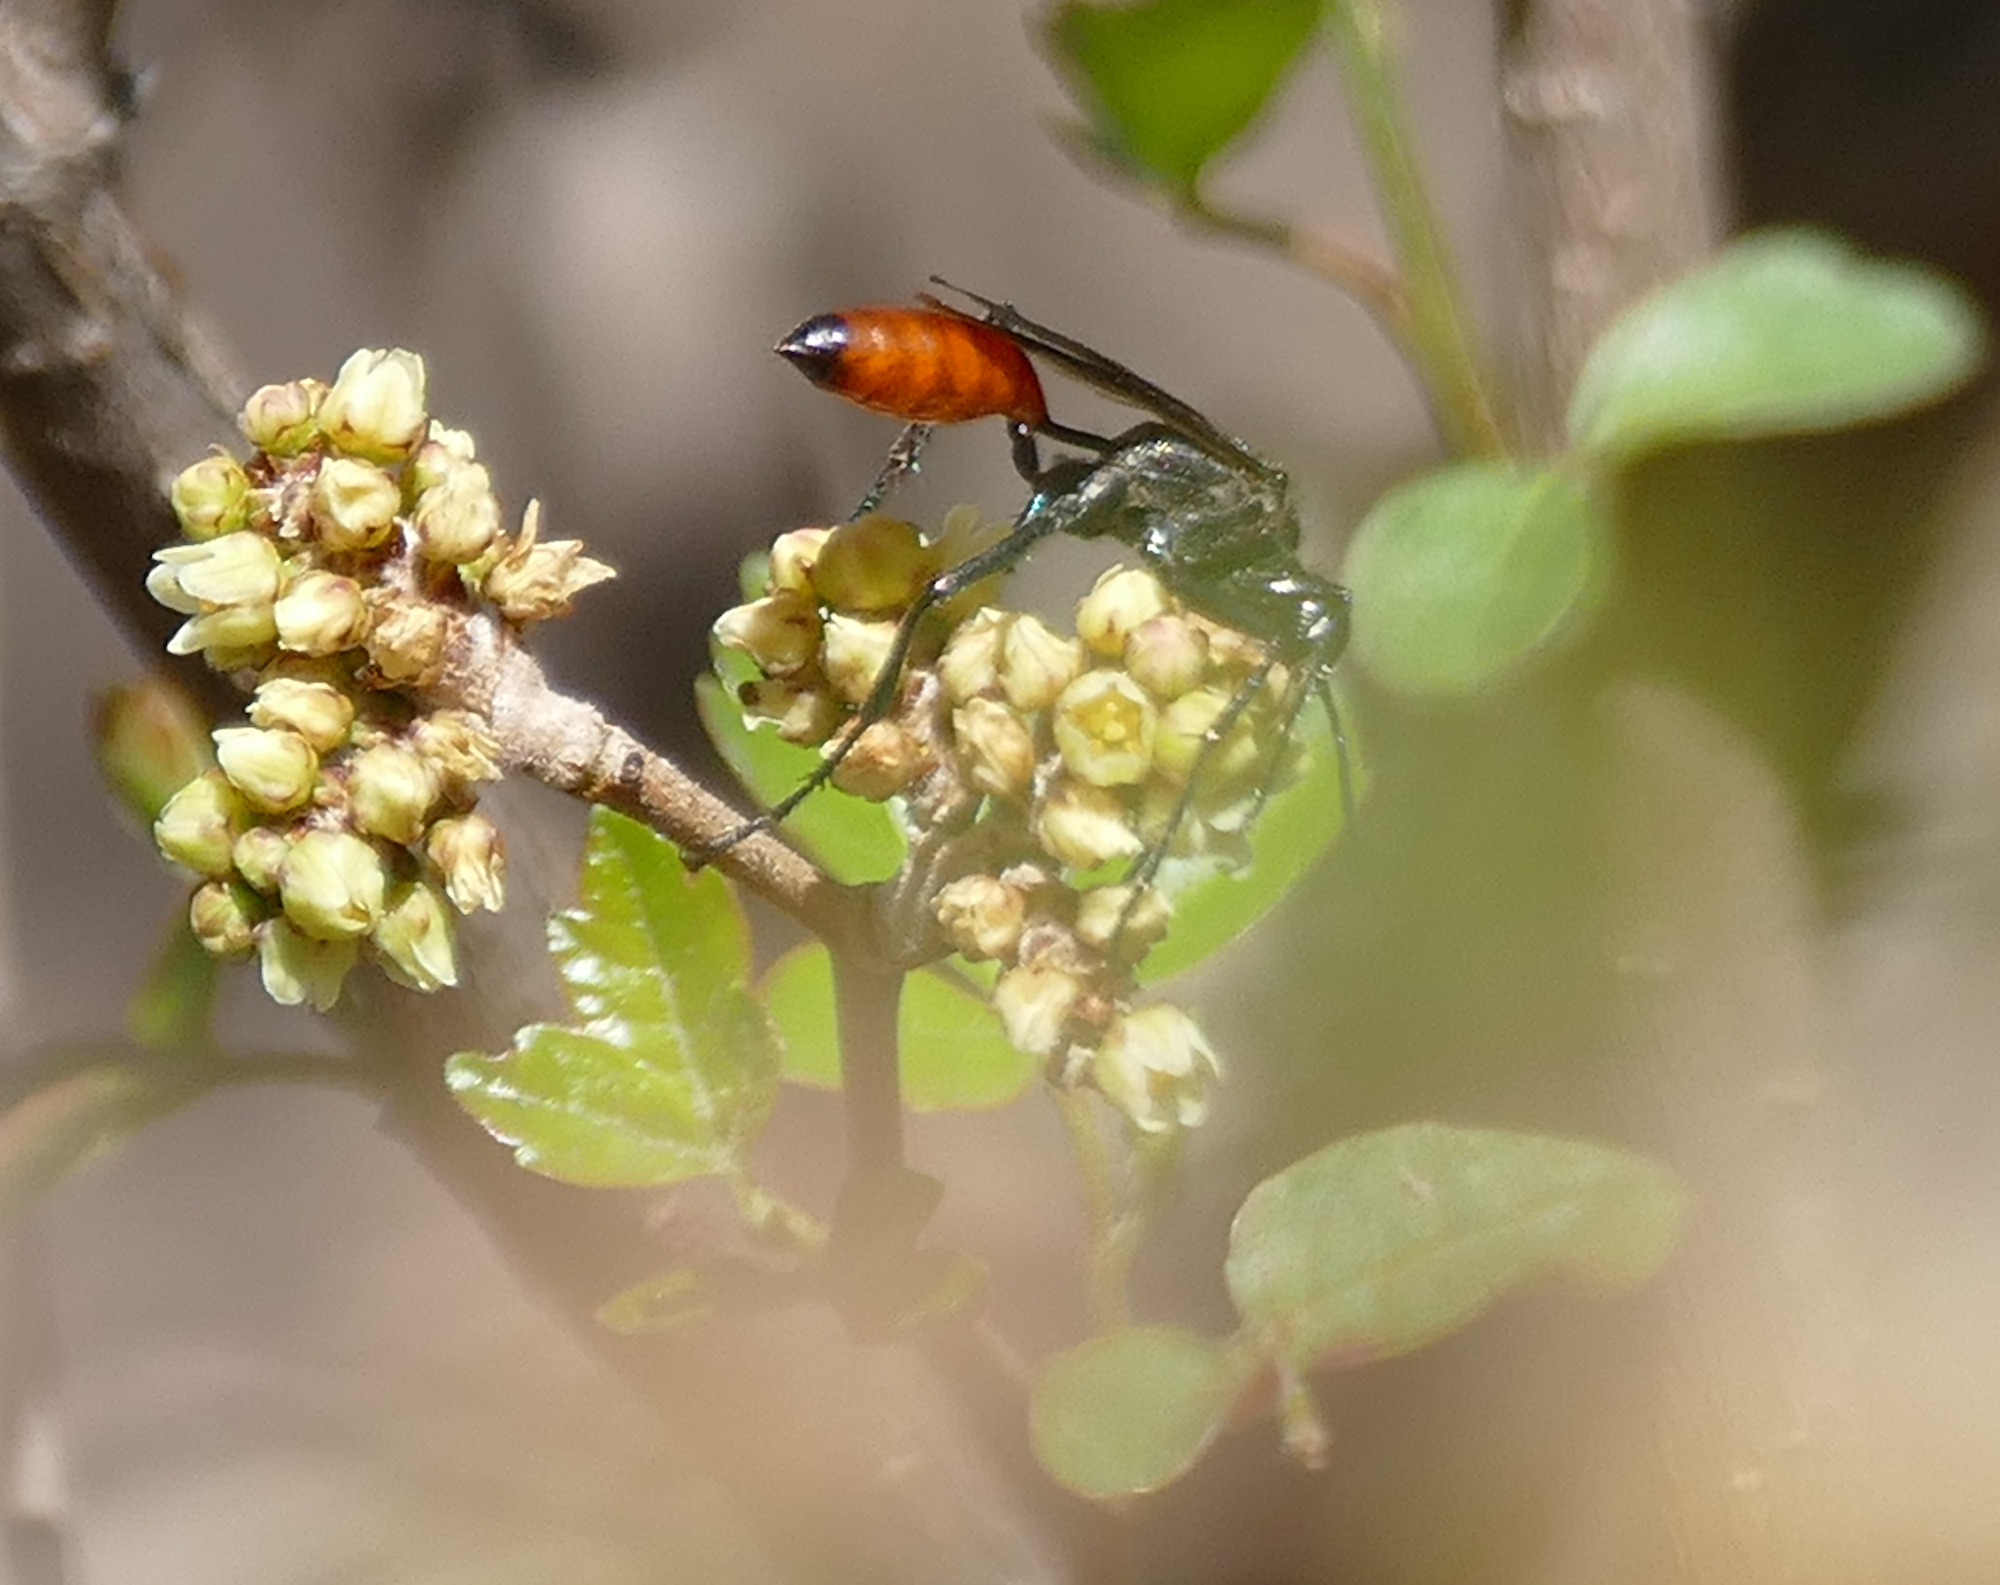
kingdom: Animalia
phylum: Arthropoda
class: Insecta
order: Hymenoptera
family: Sphecidae
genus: Podalonia
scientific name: Podalonia
